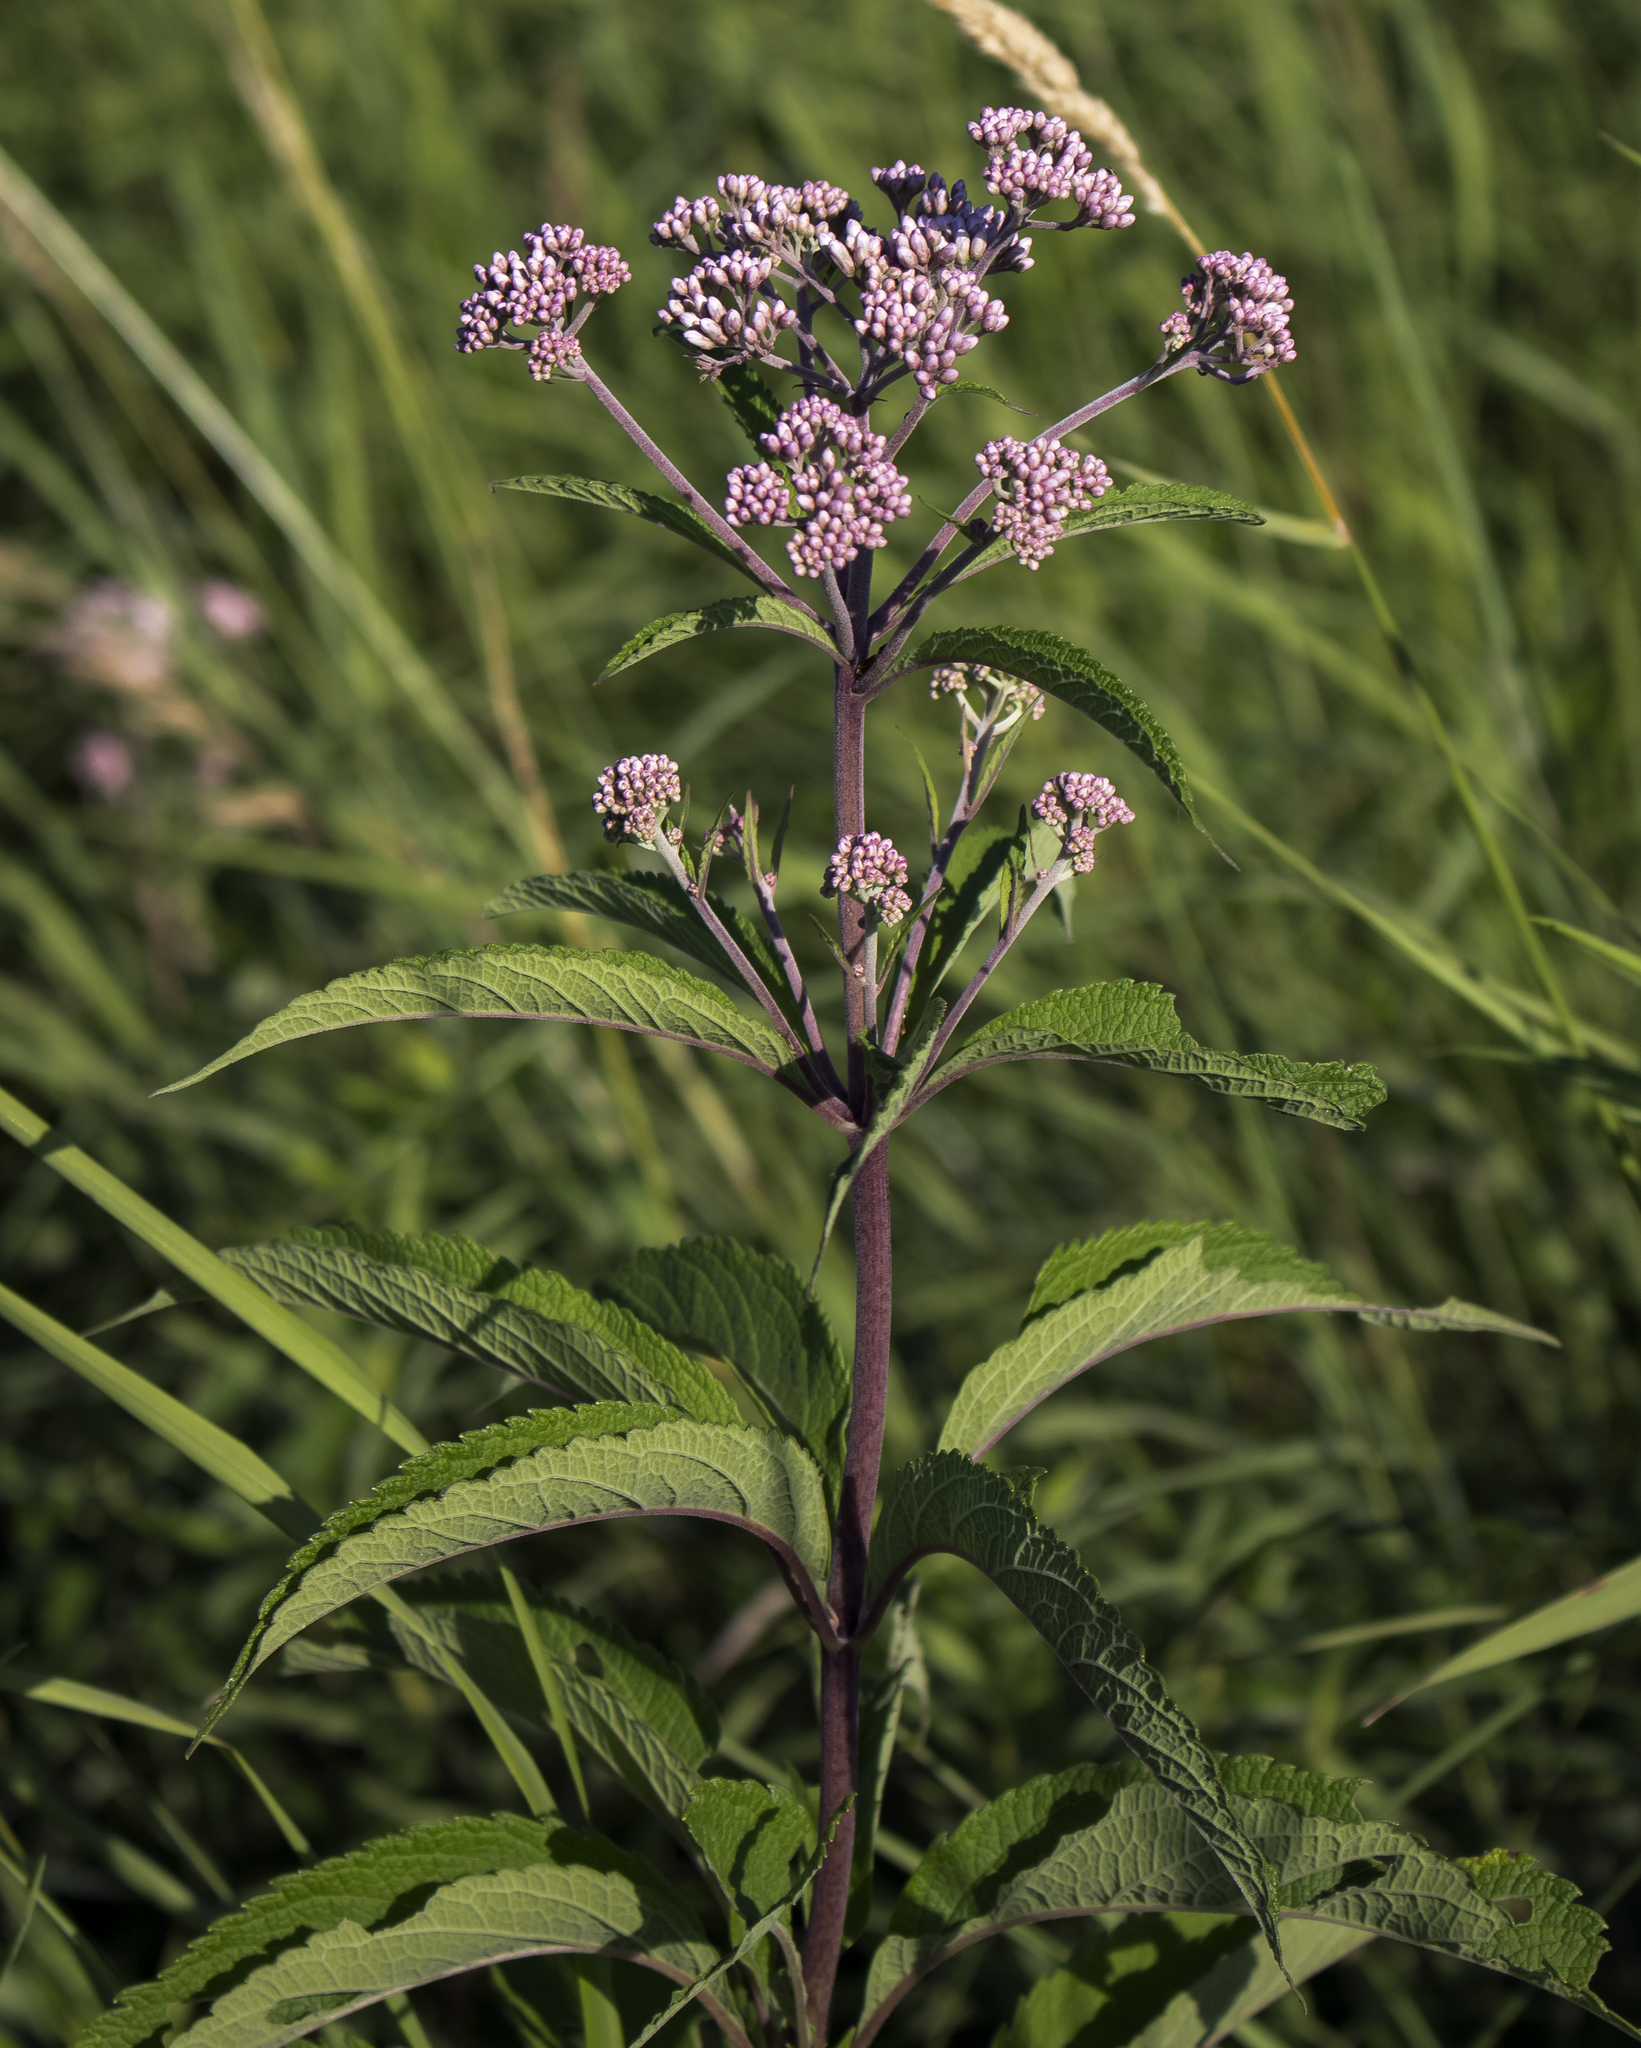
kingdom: Plantae
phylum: Tracheophyta
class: Magnoliopsida
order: Asterales
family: Asteraceae
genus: Eutrochium
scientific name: Eutrochium maculatum
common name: Spotted joe pye weed
